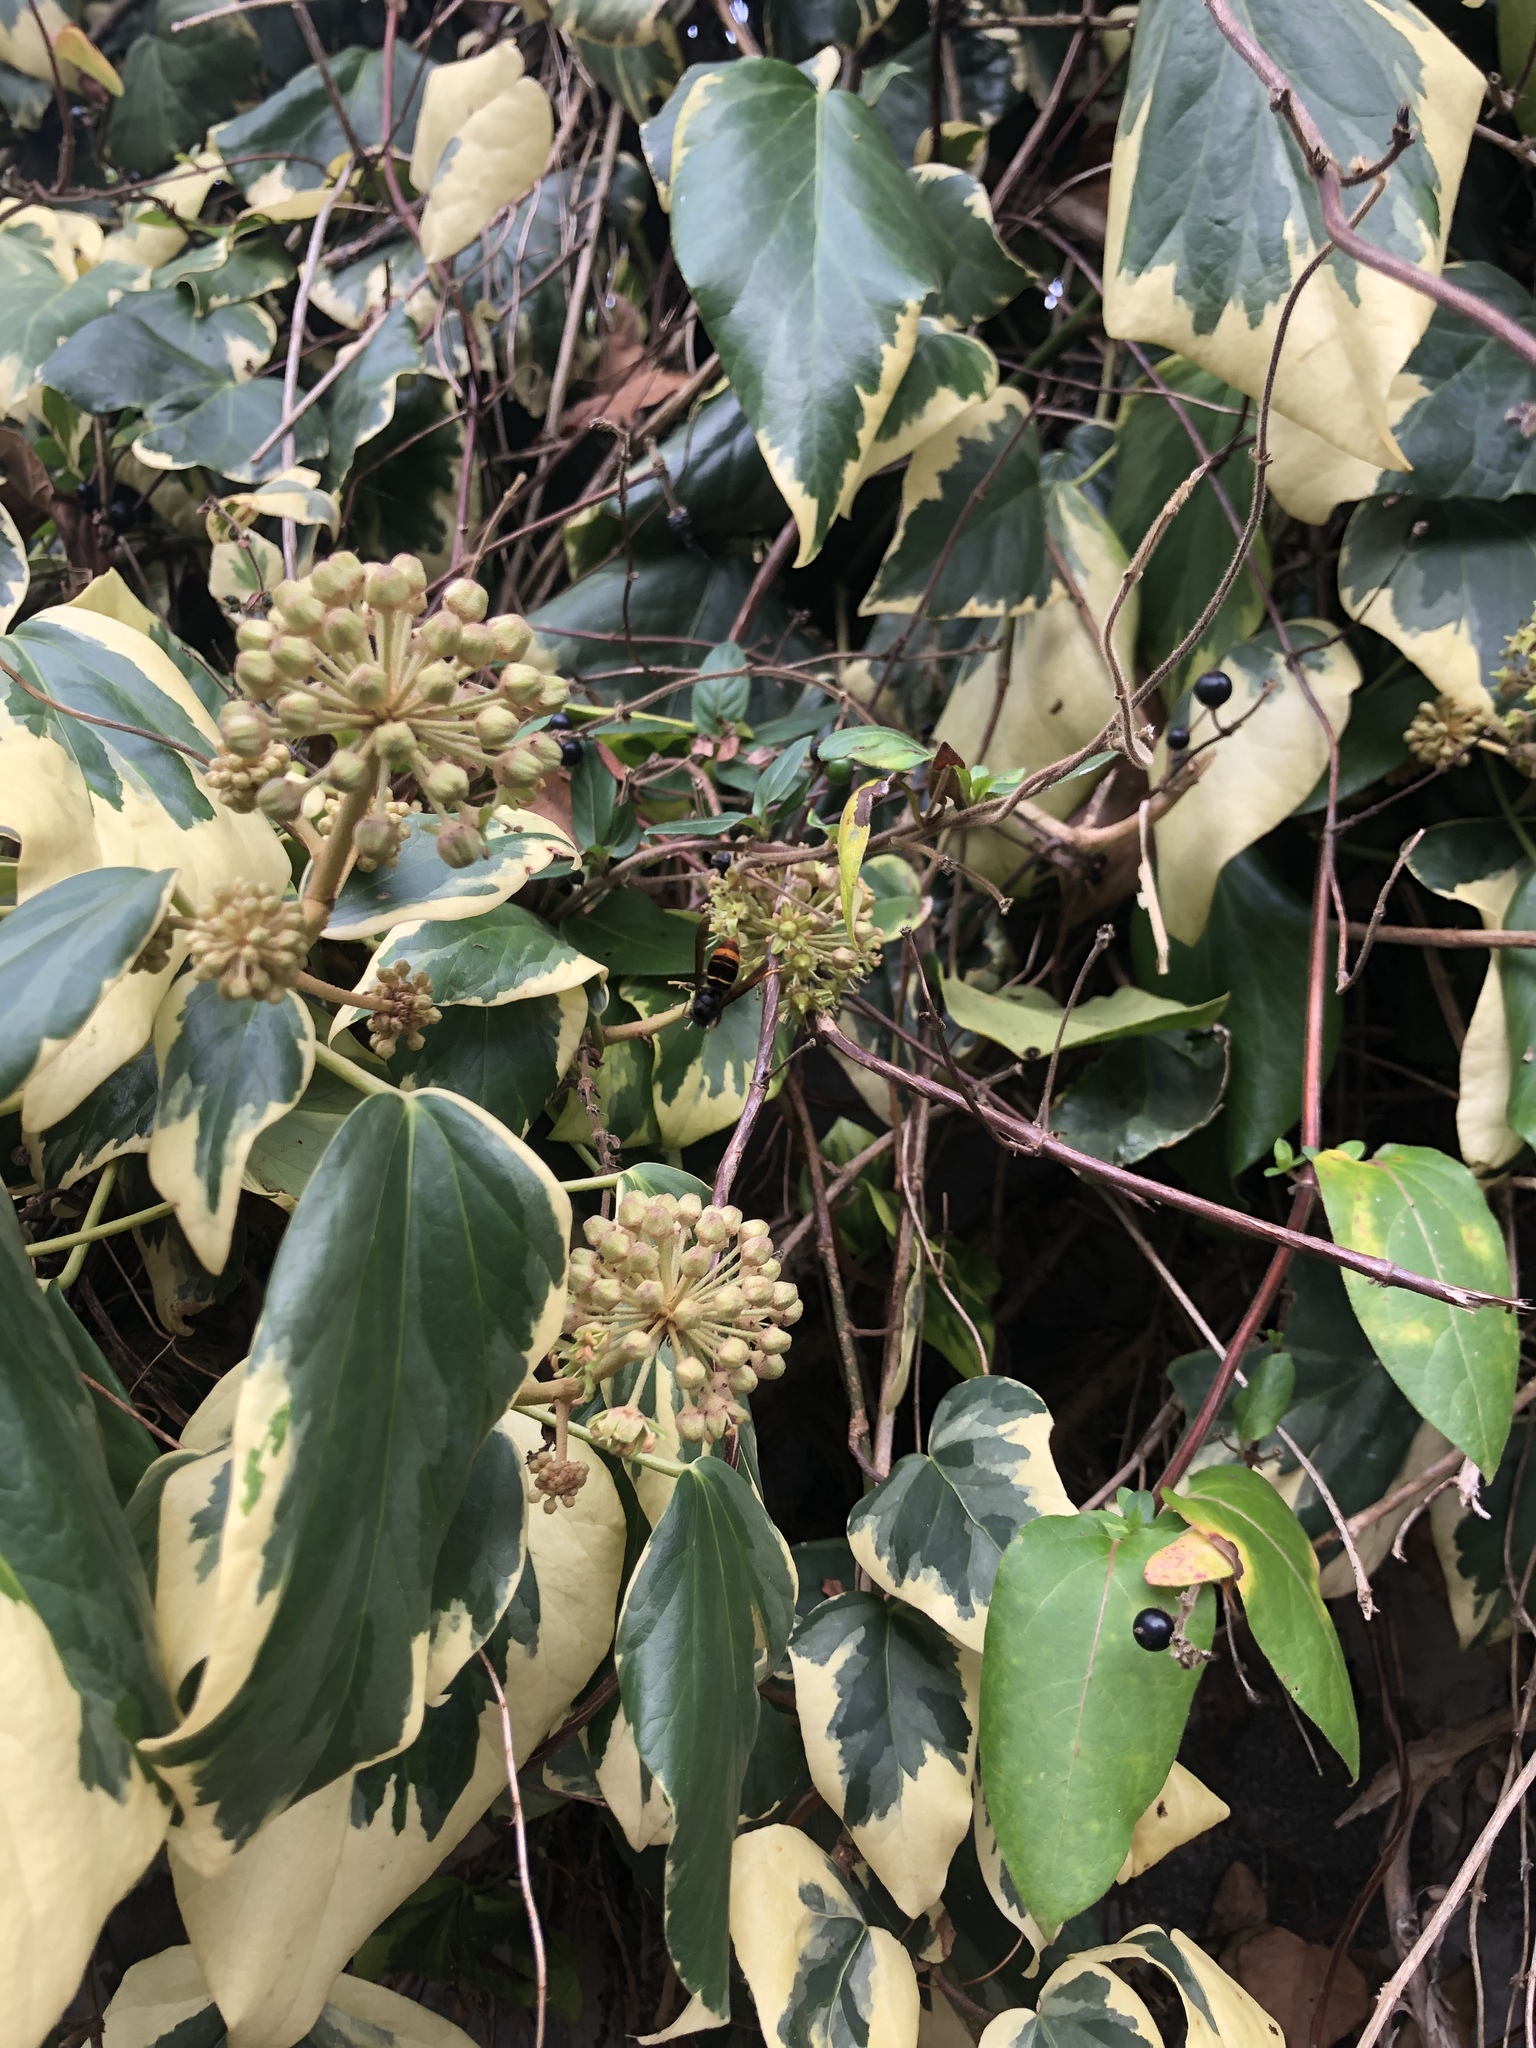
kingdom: Animalia
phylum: Arthropoda
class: Insecta
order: Hymenoptera
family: Vespidae
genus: Vespa
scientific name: Vespa velutina
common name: Asian hornet
